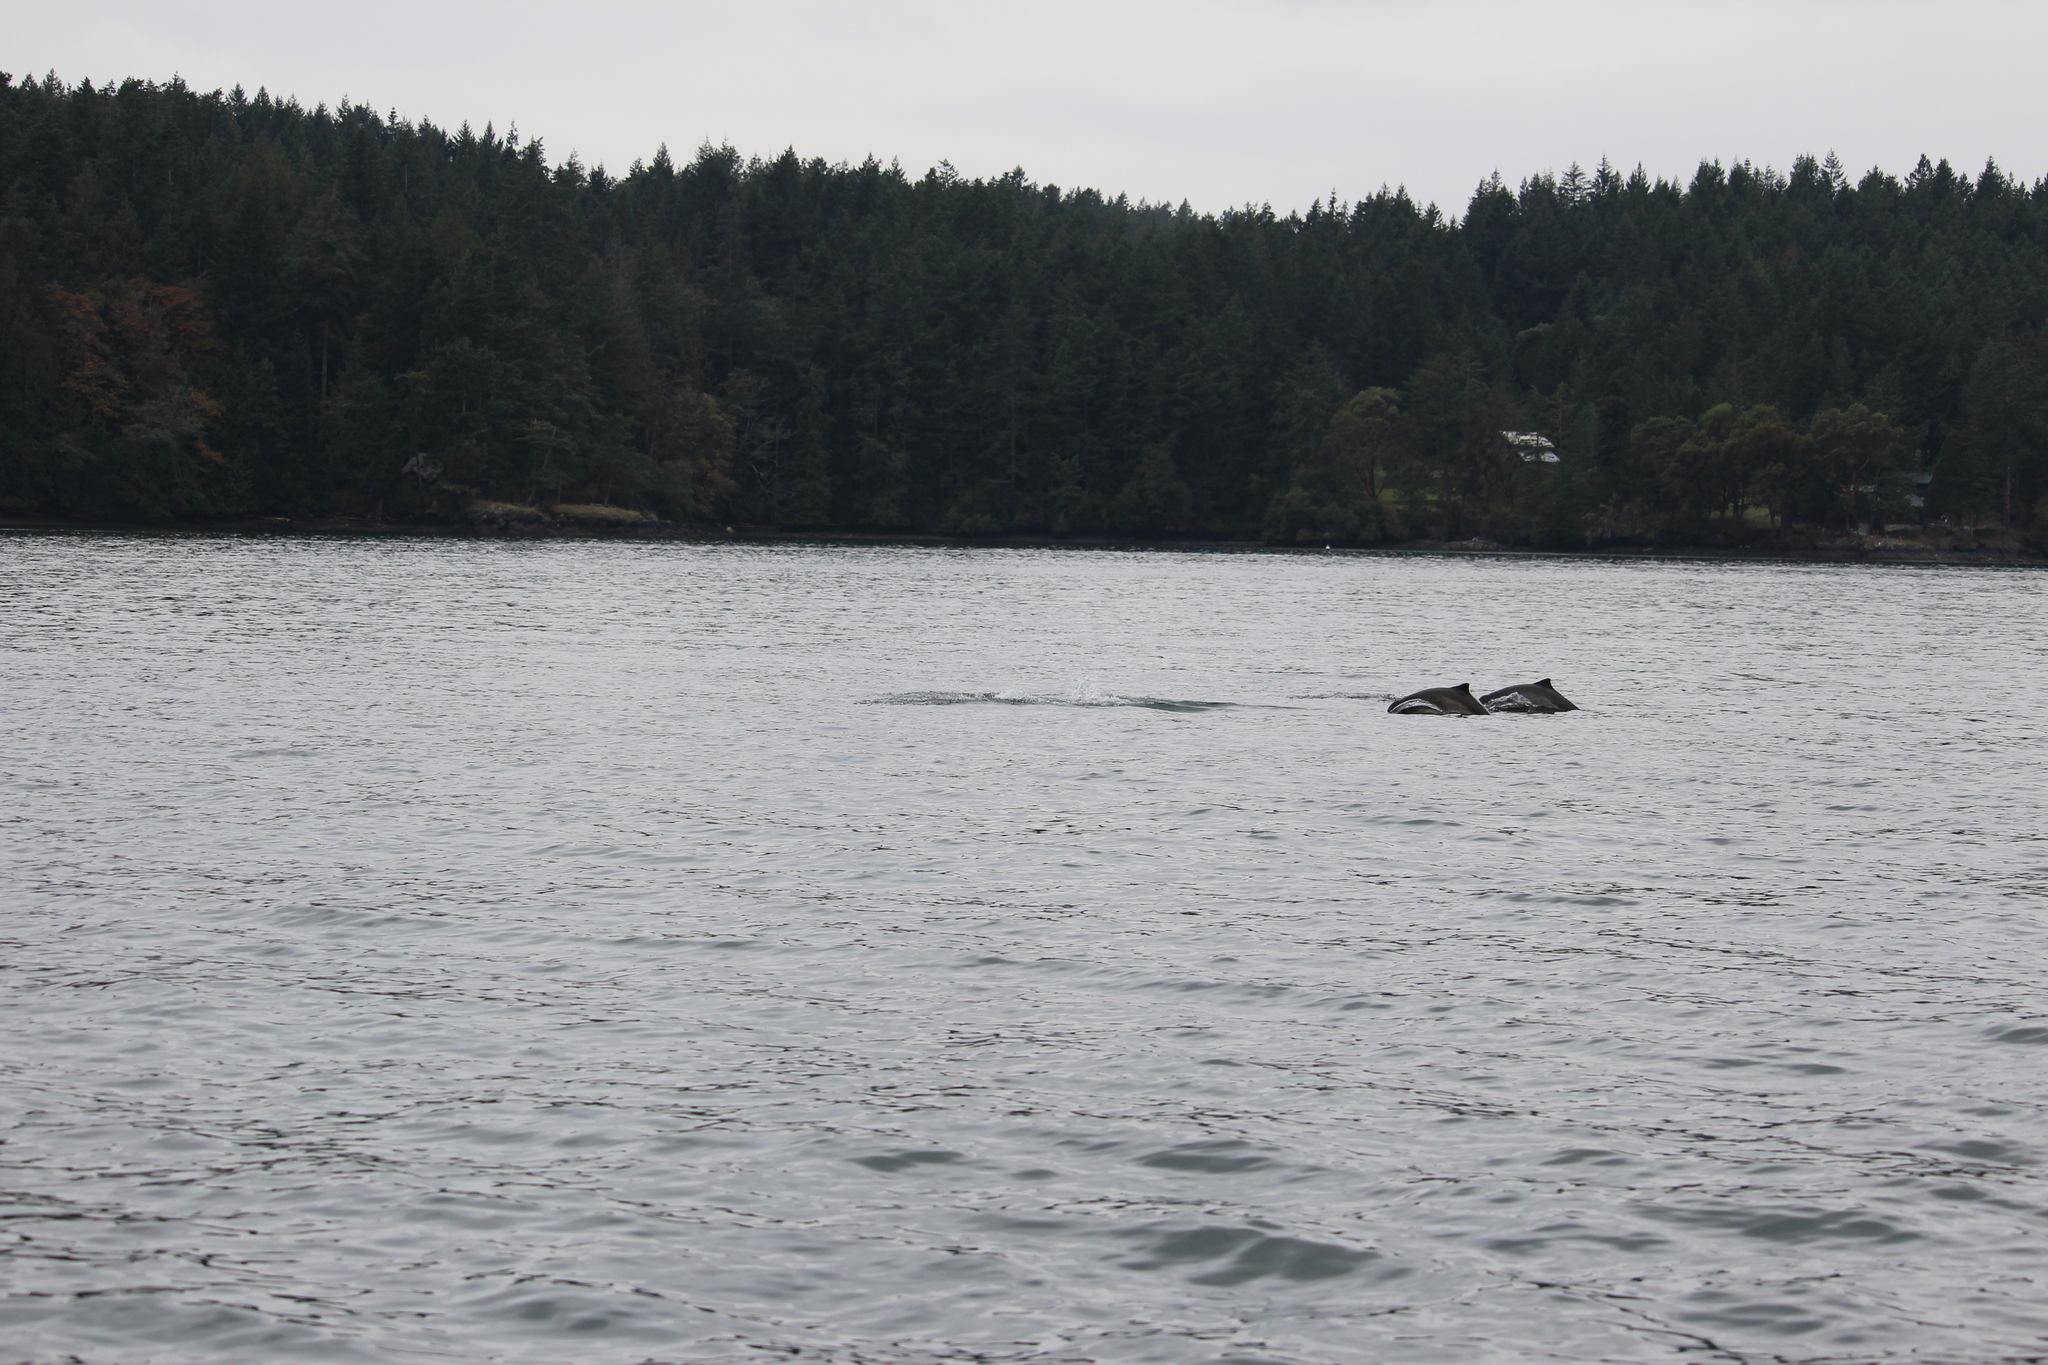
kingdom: Animalia
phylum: Chordata
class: Mammalia
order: Cetacea
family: Phocoenidae
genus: Phocoena
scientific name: Phocoena phocoena
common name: Harbor porpoise
